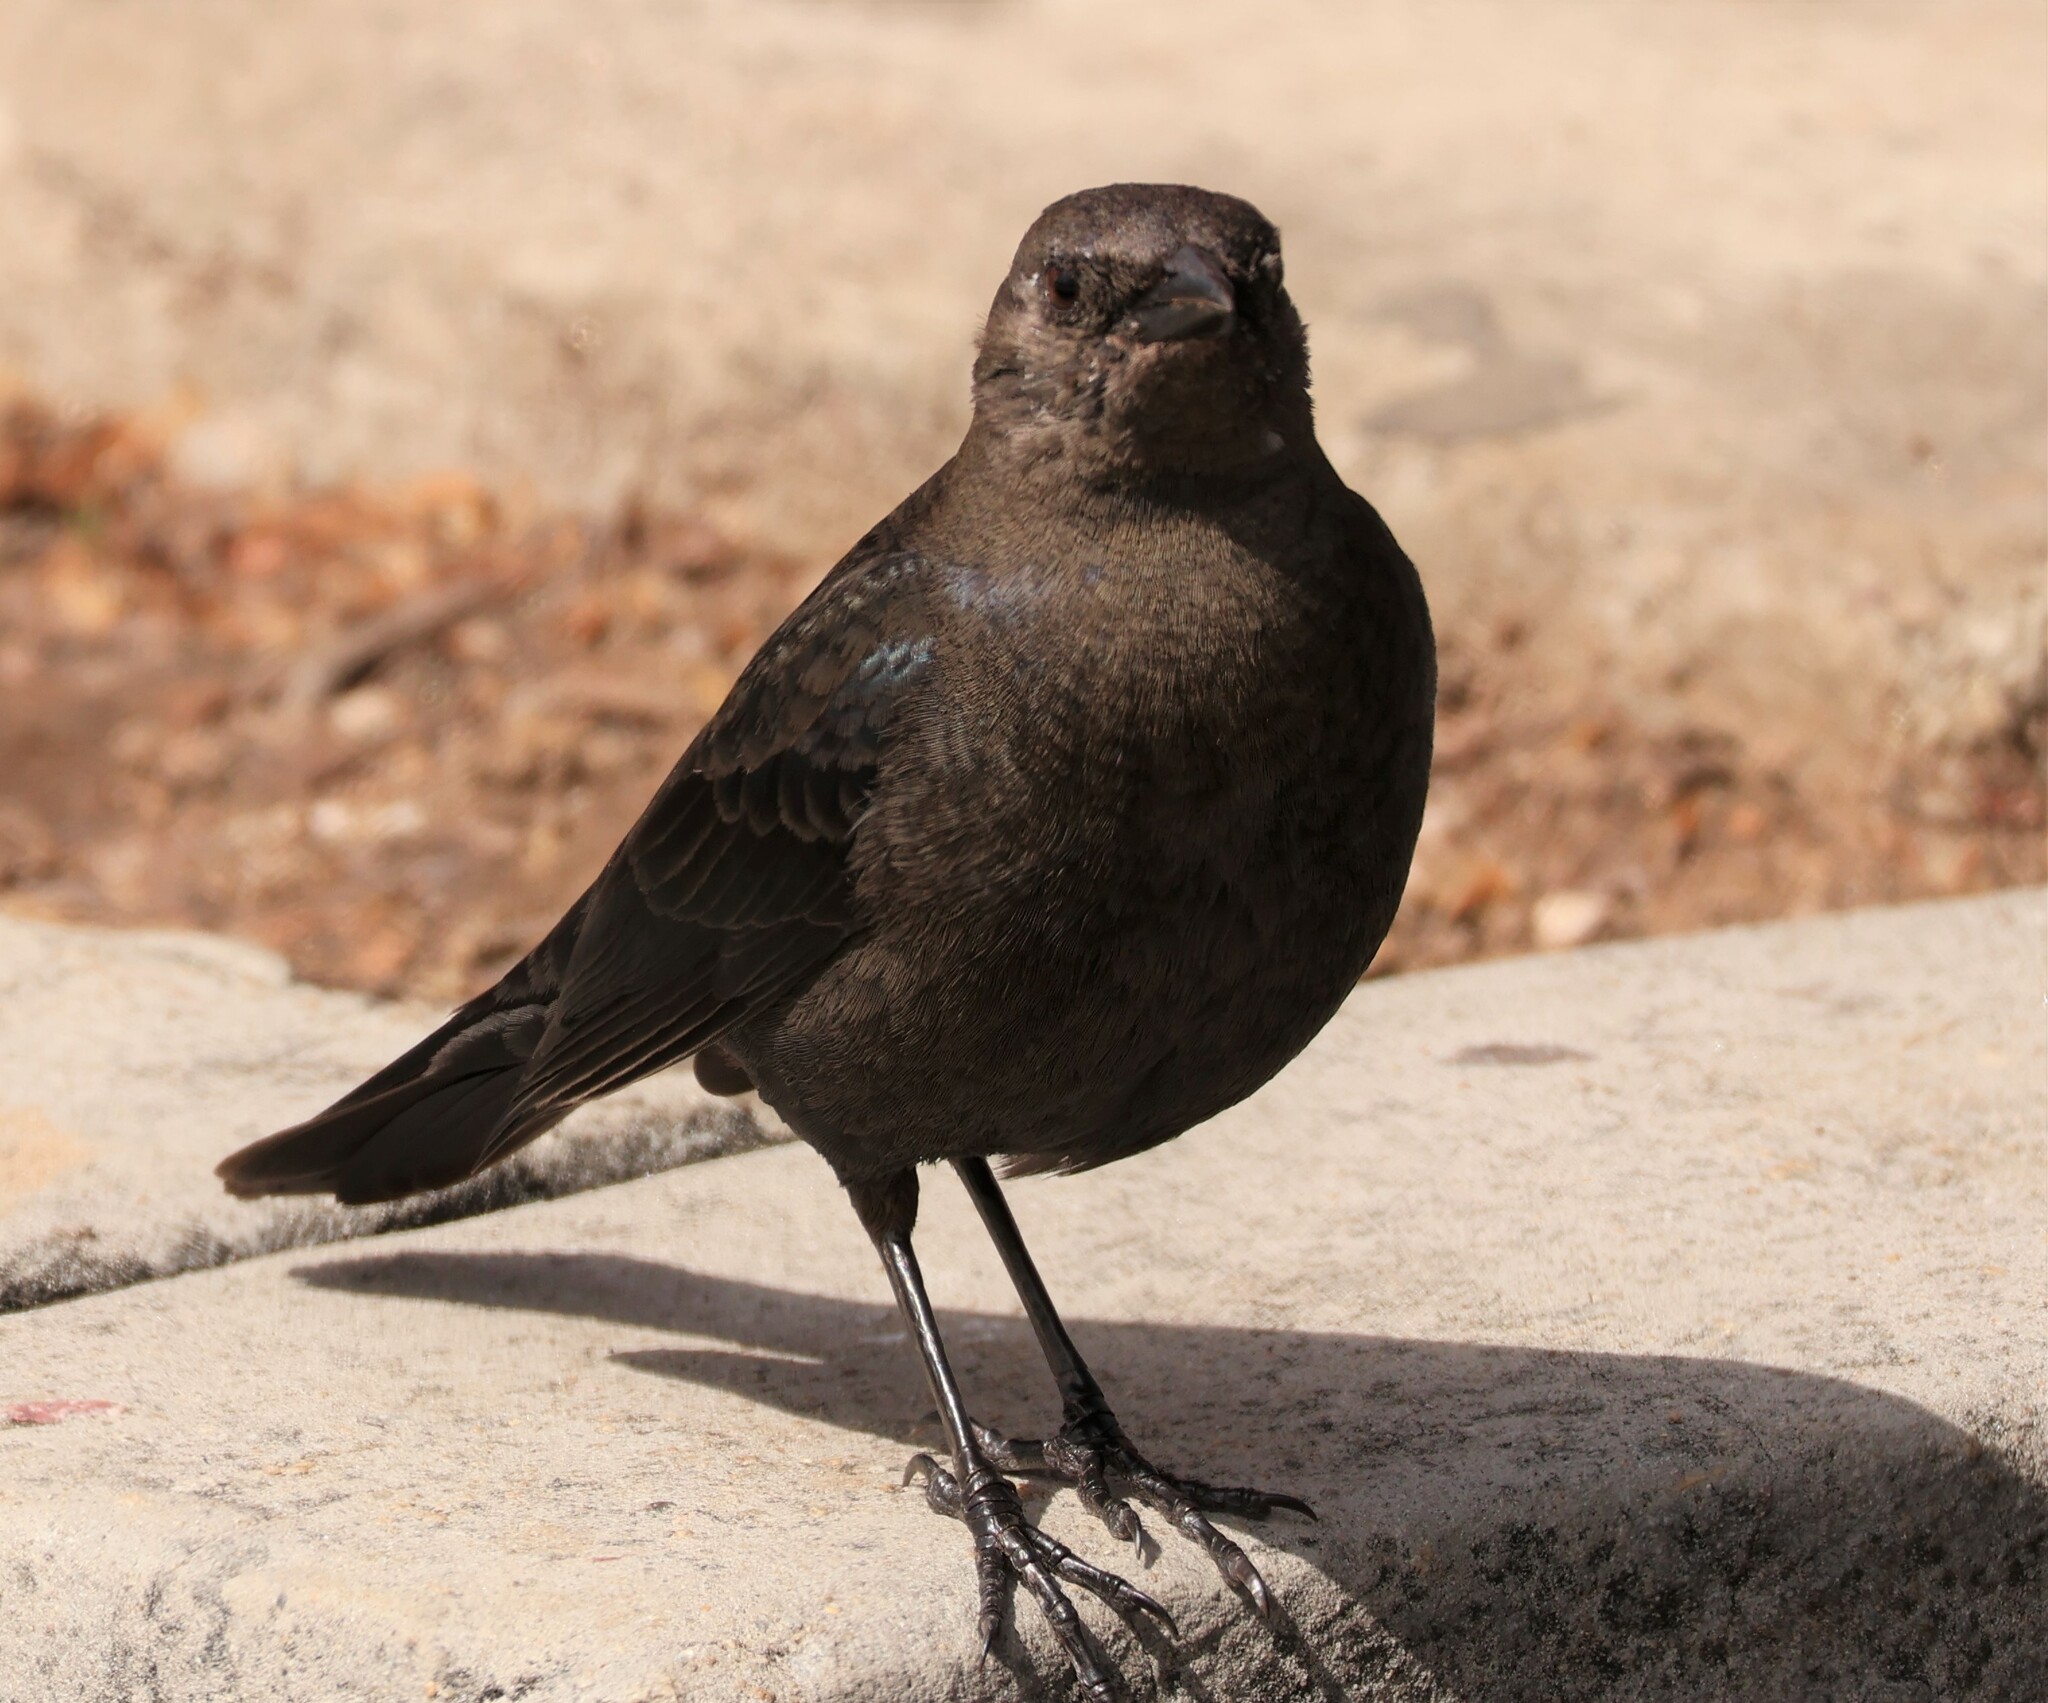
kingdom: Animalia
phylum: Chordata
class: Aves
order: Passeriformes
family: Icteridae
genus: Euphagus
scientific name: Euphagus cyanocephalus
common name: Brewer's blackbird
